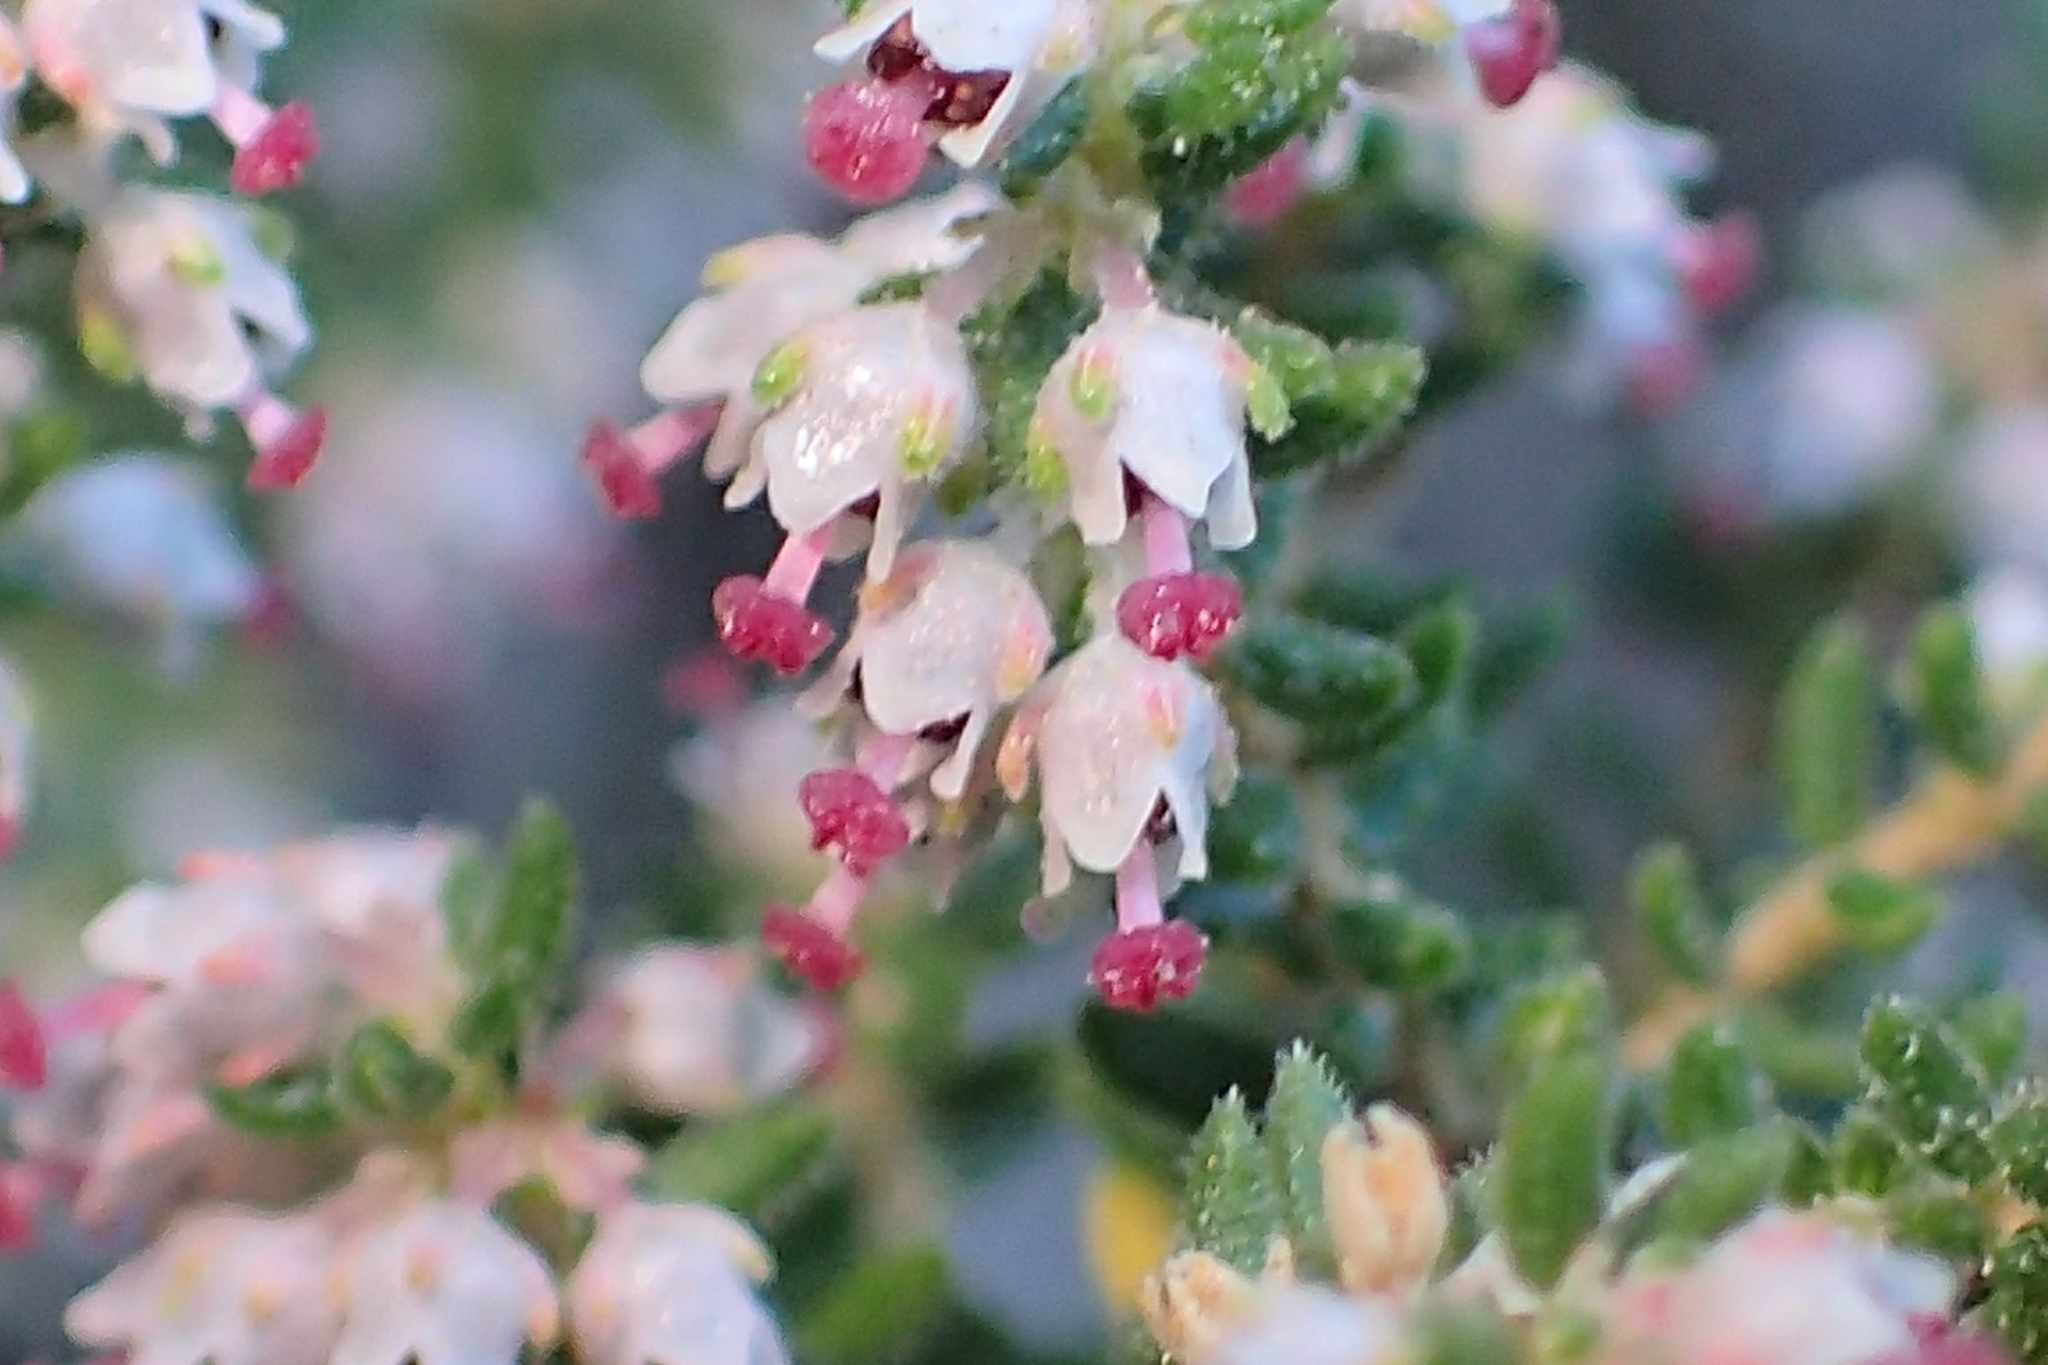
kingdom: Plantae
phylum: Tracheophyta
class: Magnoliopsida
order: Ericales
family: Ericaceae
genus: Erica
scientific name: Erica hispidula
